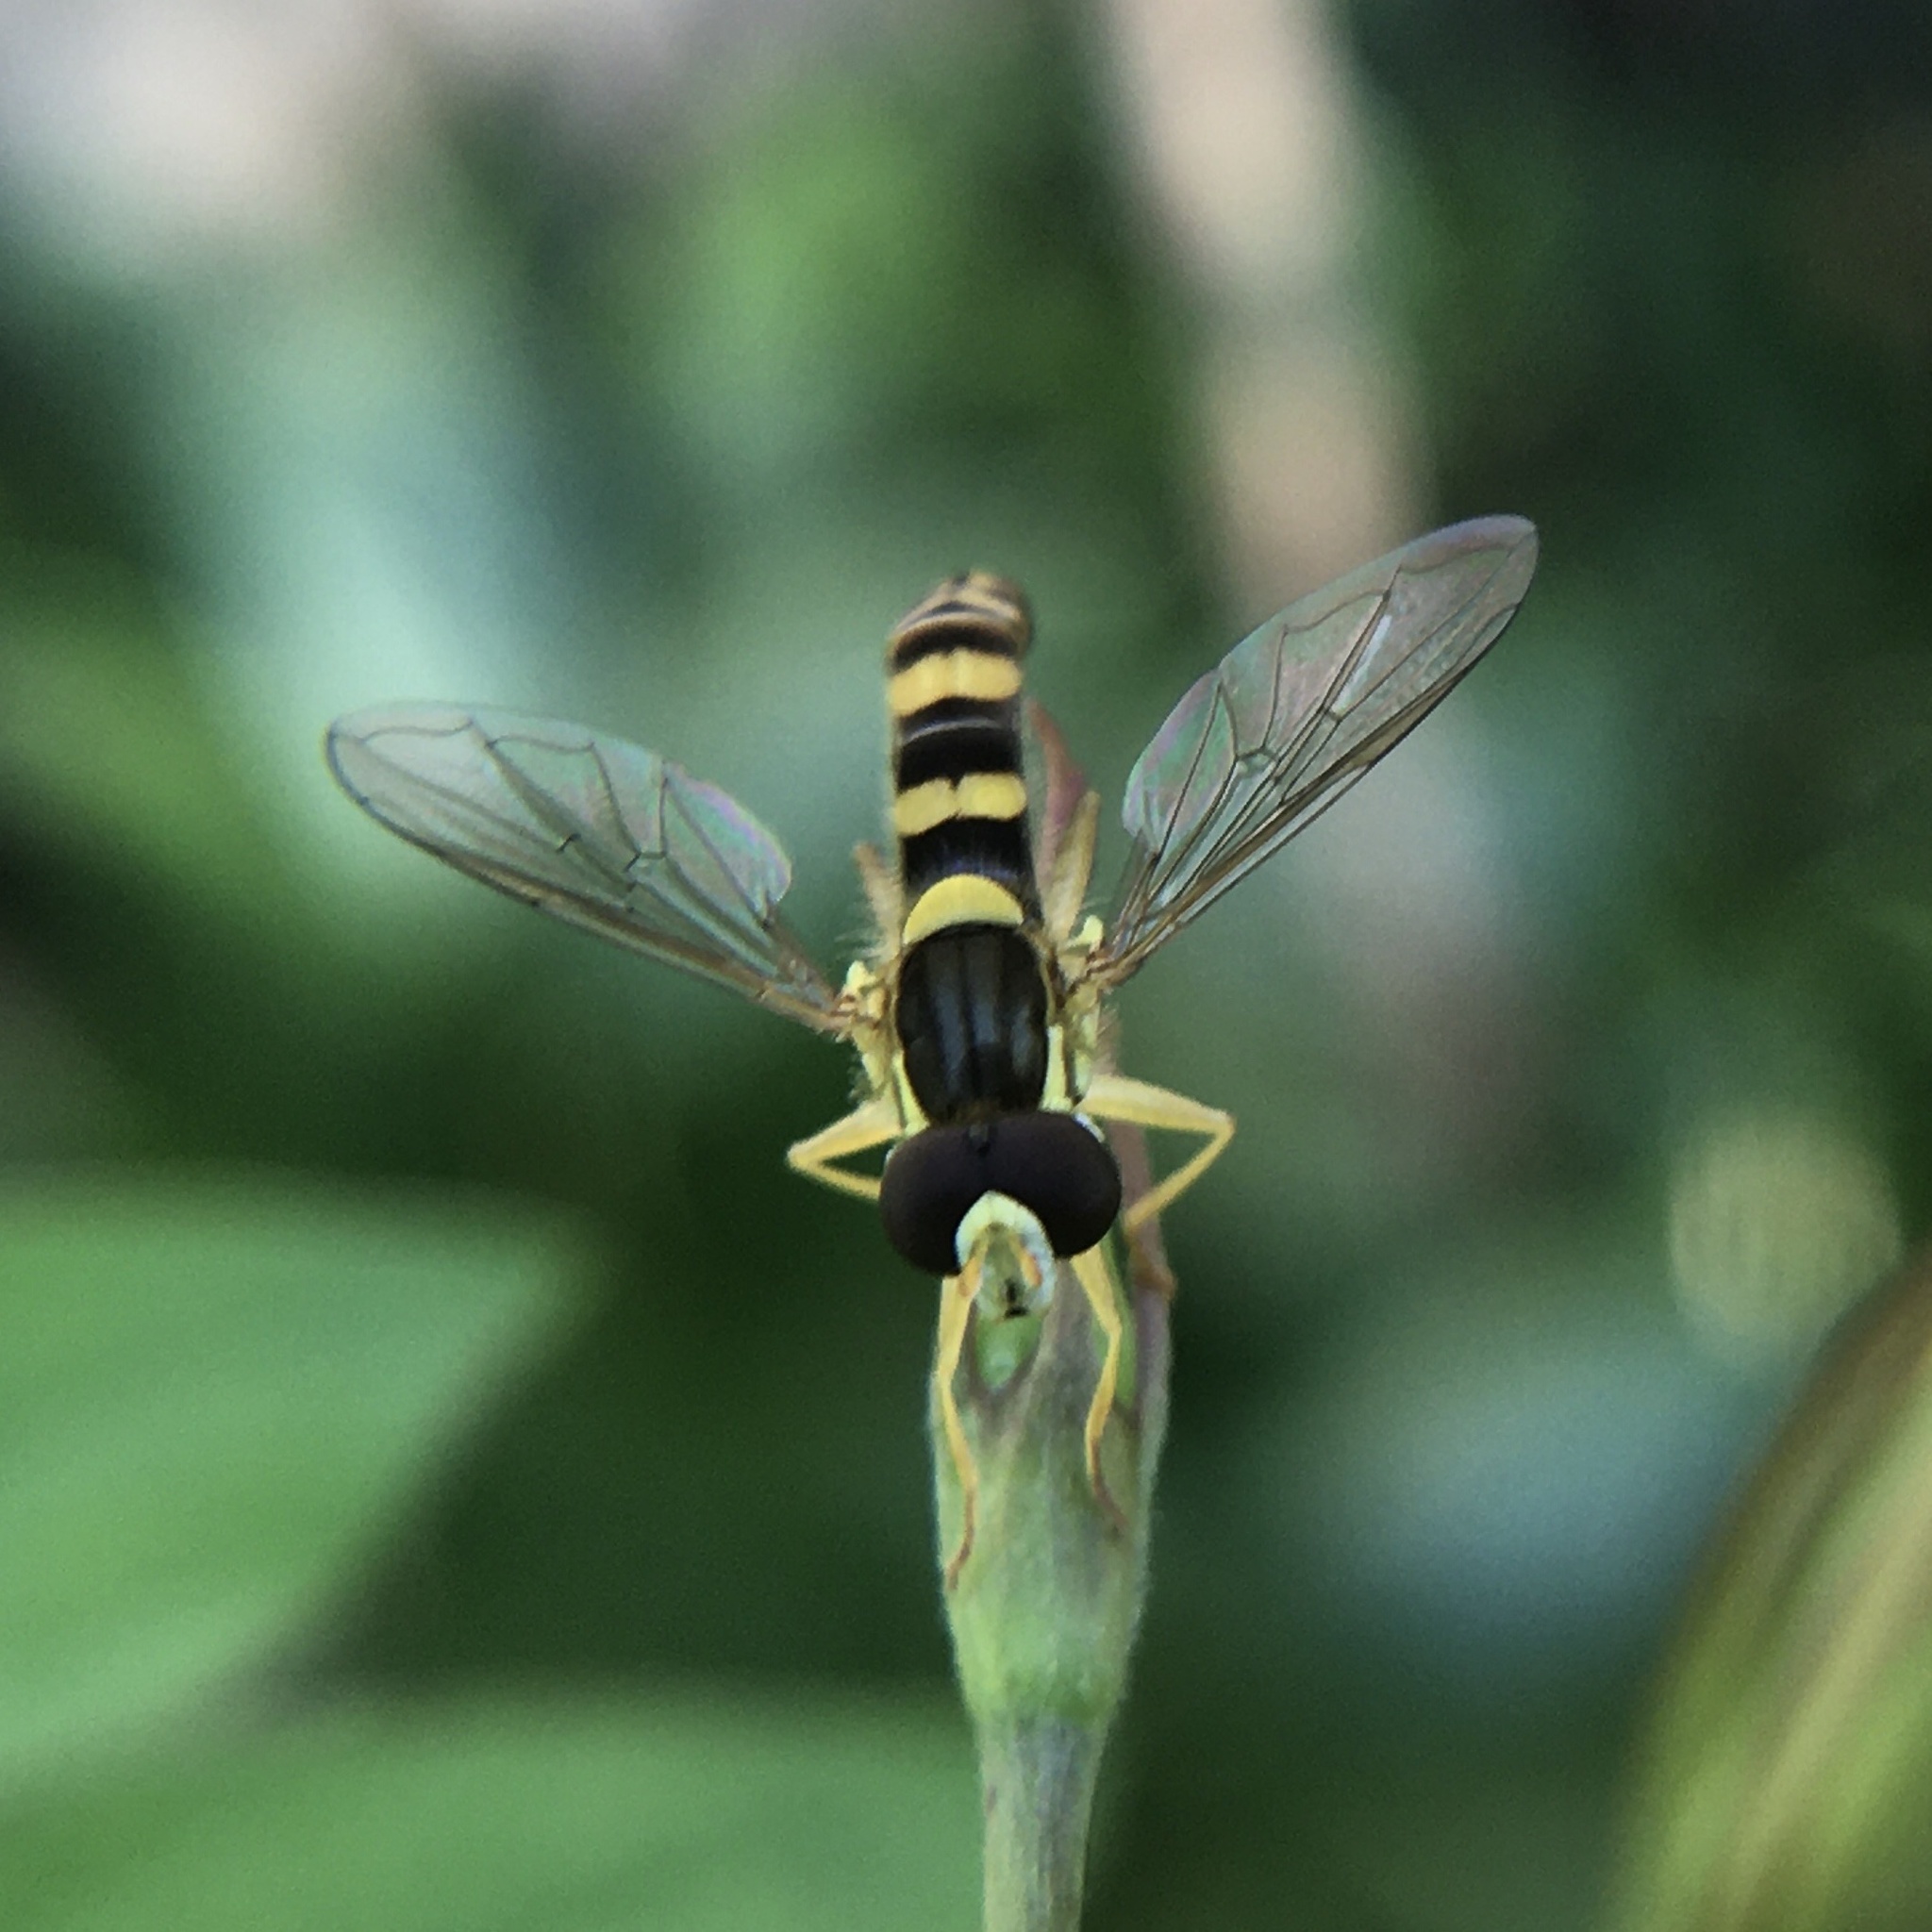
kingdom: Animalia
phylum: Arthropoda
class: Insecta
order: Diptera
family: Syrphidae
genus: Sphaerophoria
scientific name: Sphaerophoria scripta
